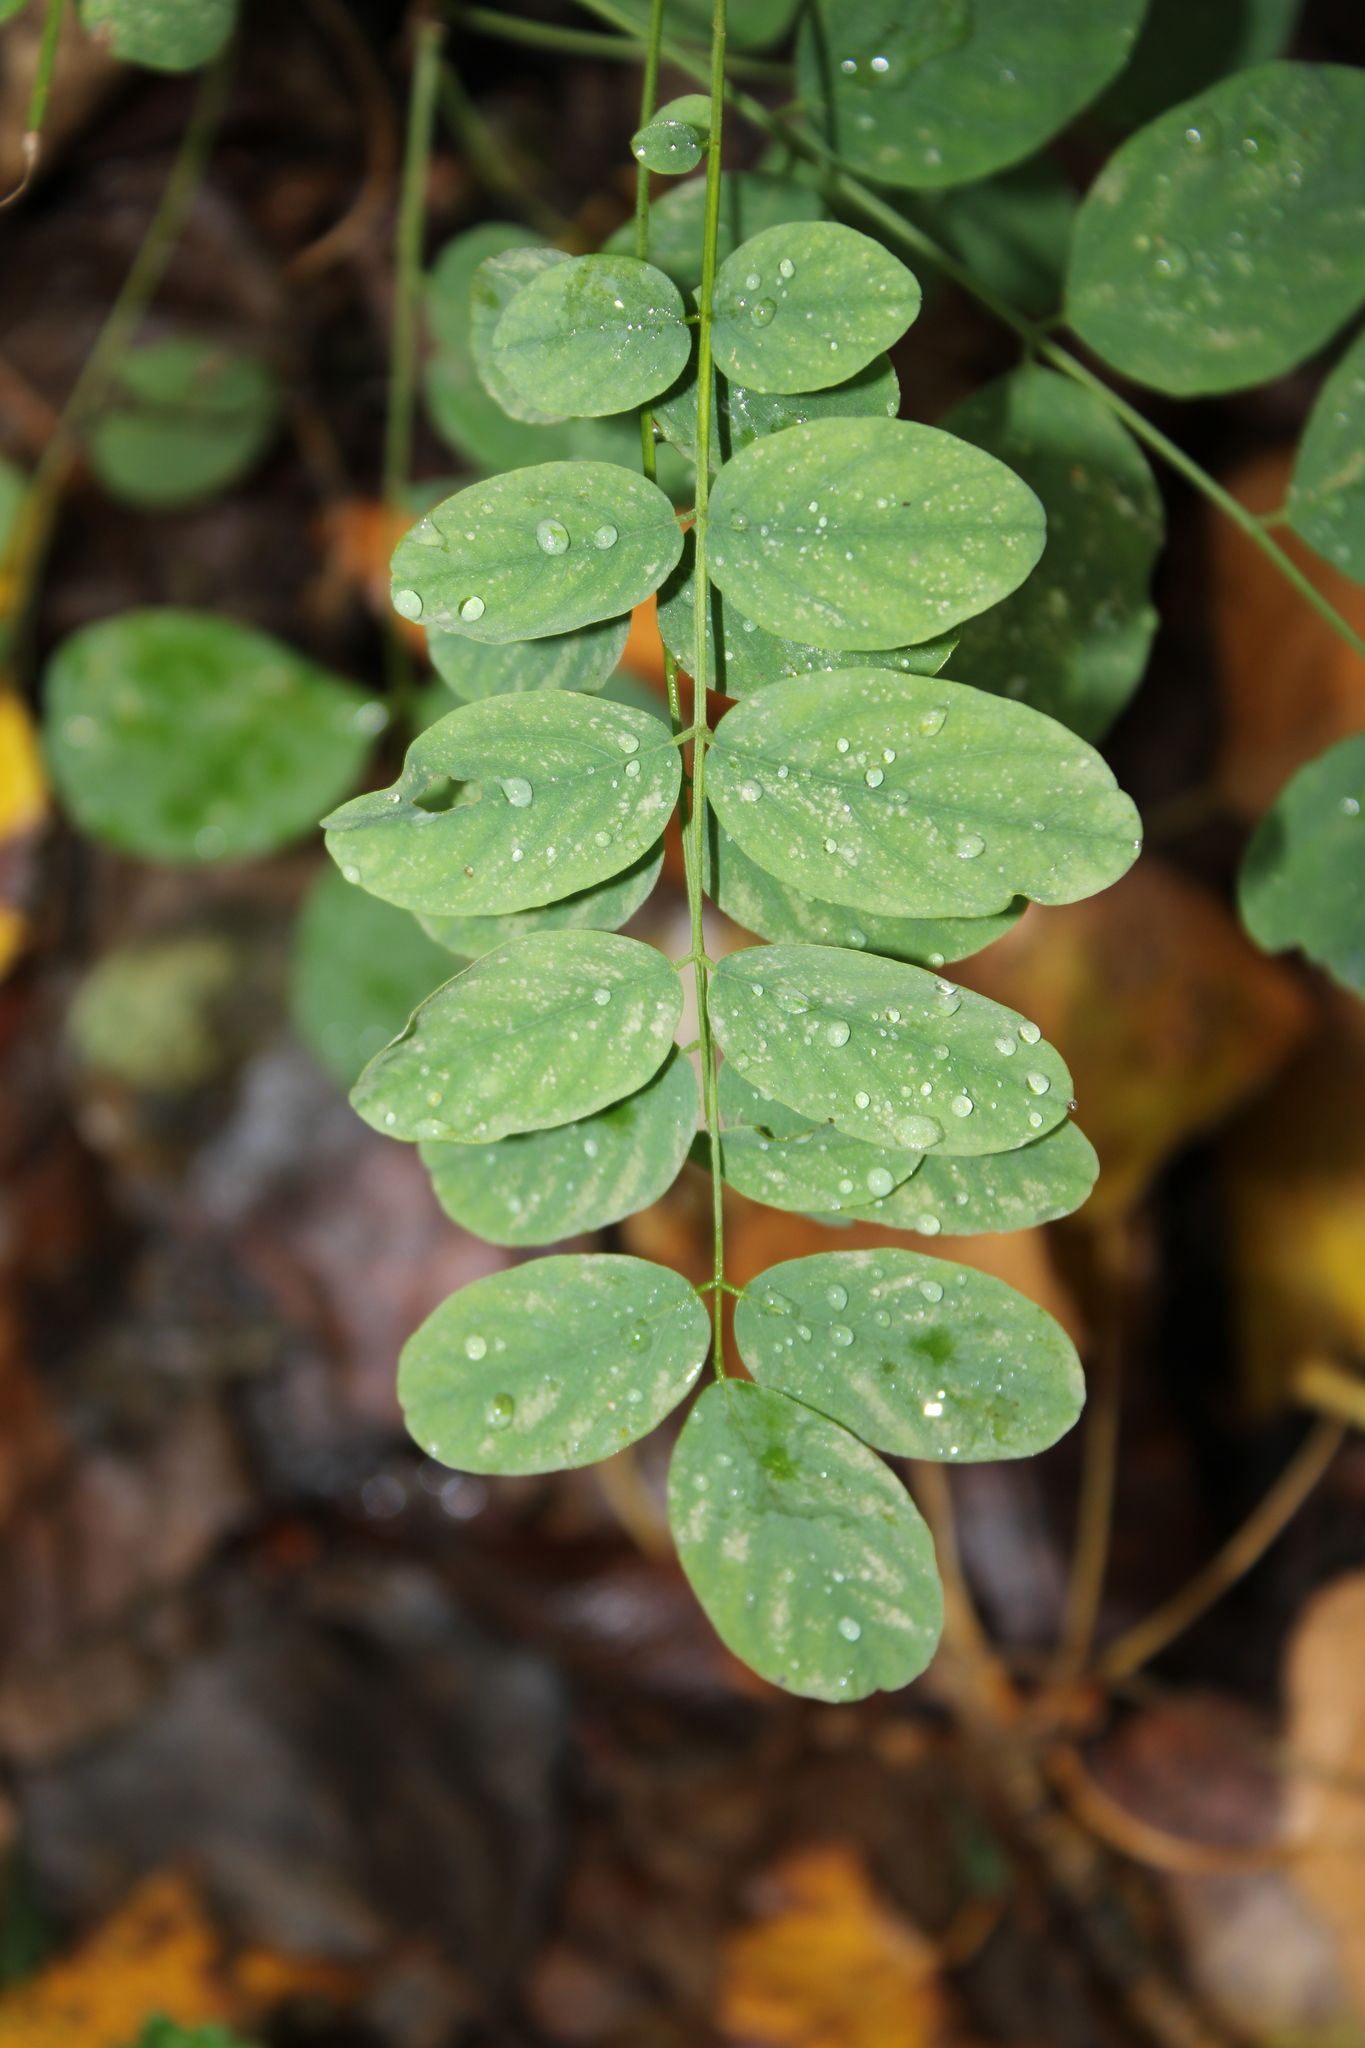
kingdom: Plantae
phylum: Tracheophyta
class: Magnoliopsida
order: Fabales
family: Fabaceae
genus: Robinia
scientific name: Robinia pseudoacacia
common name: Black locust
